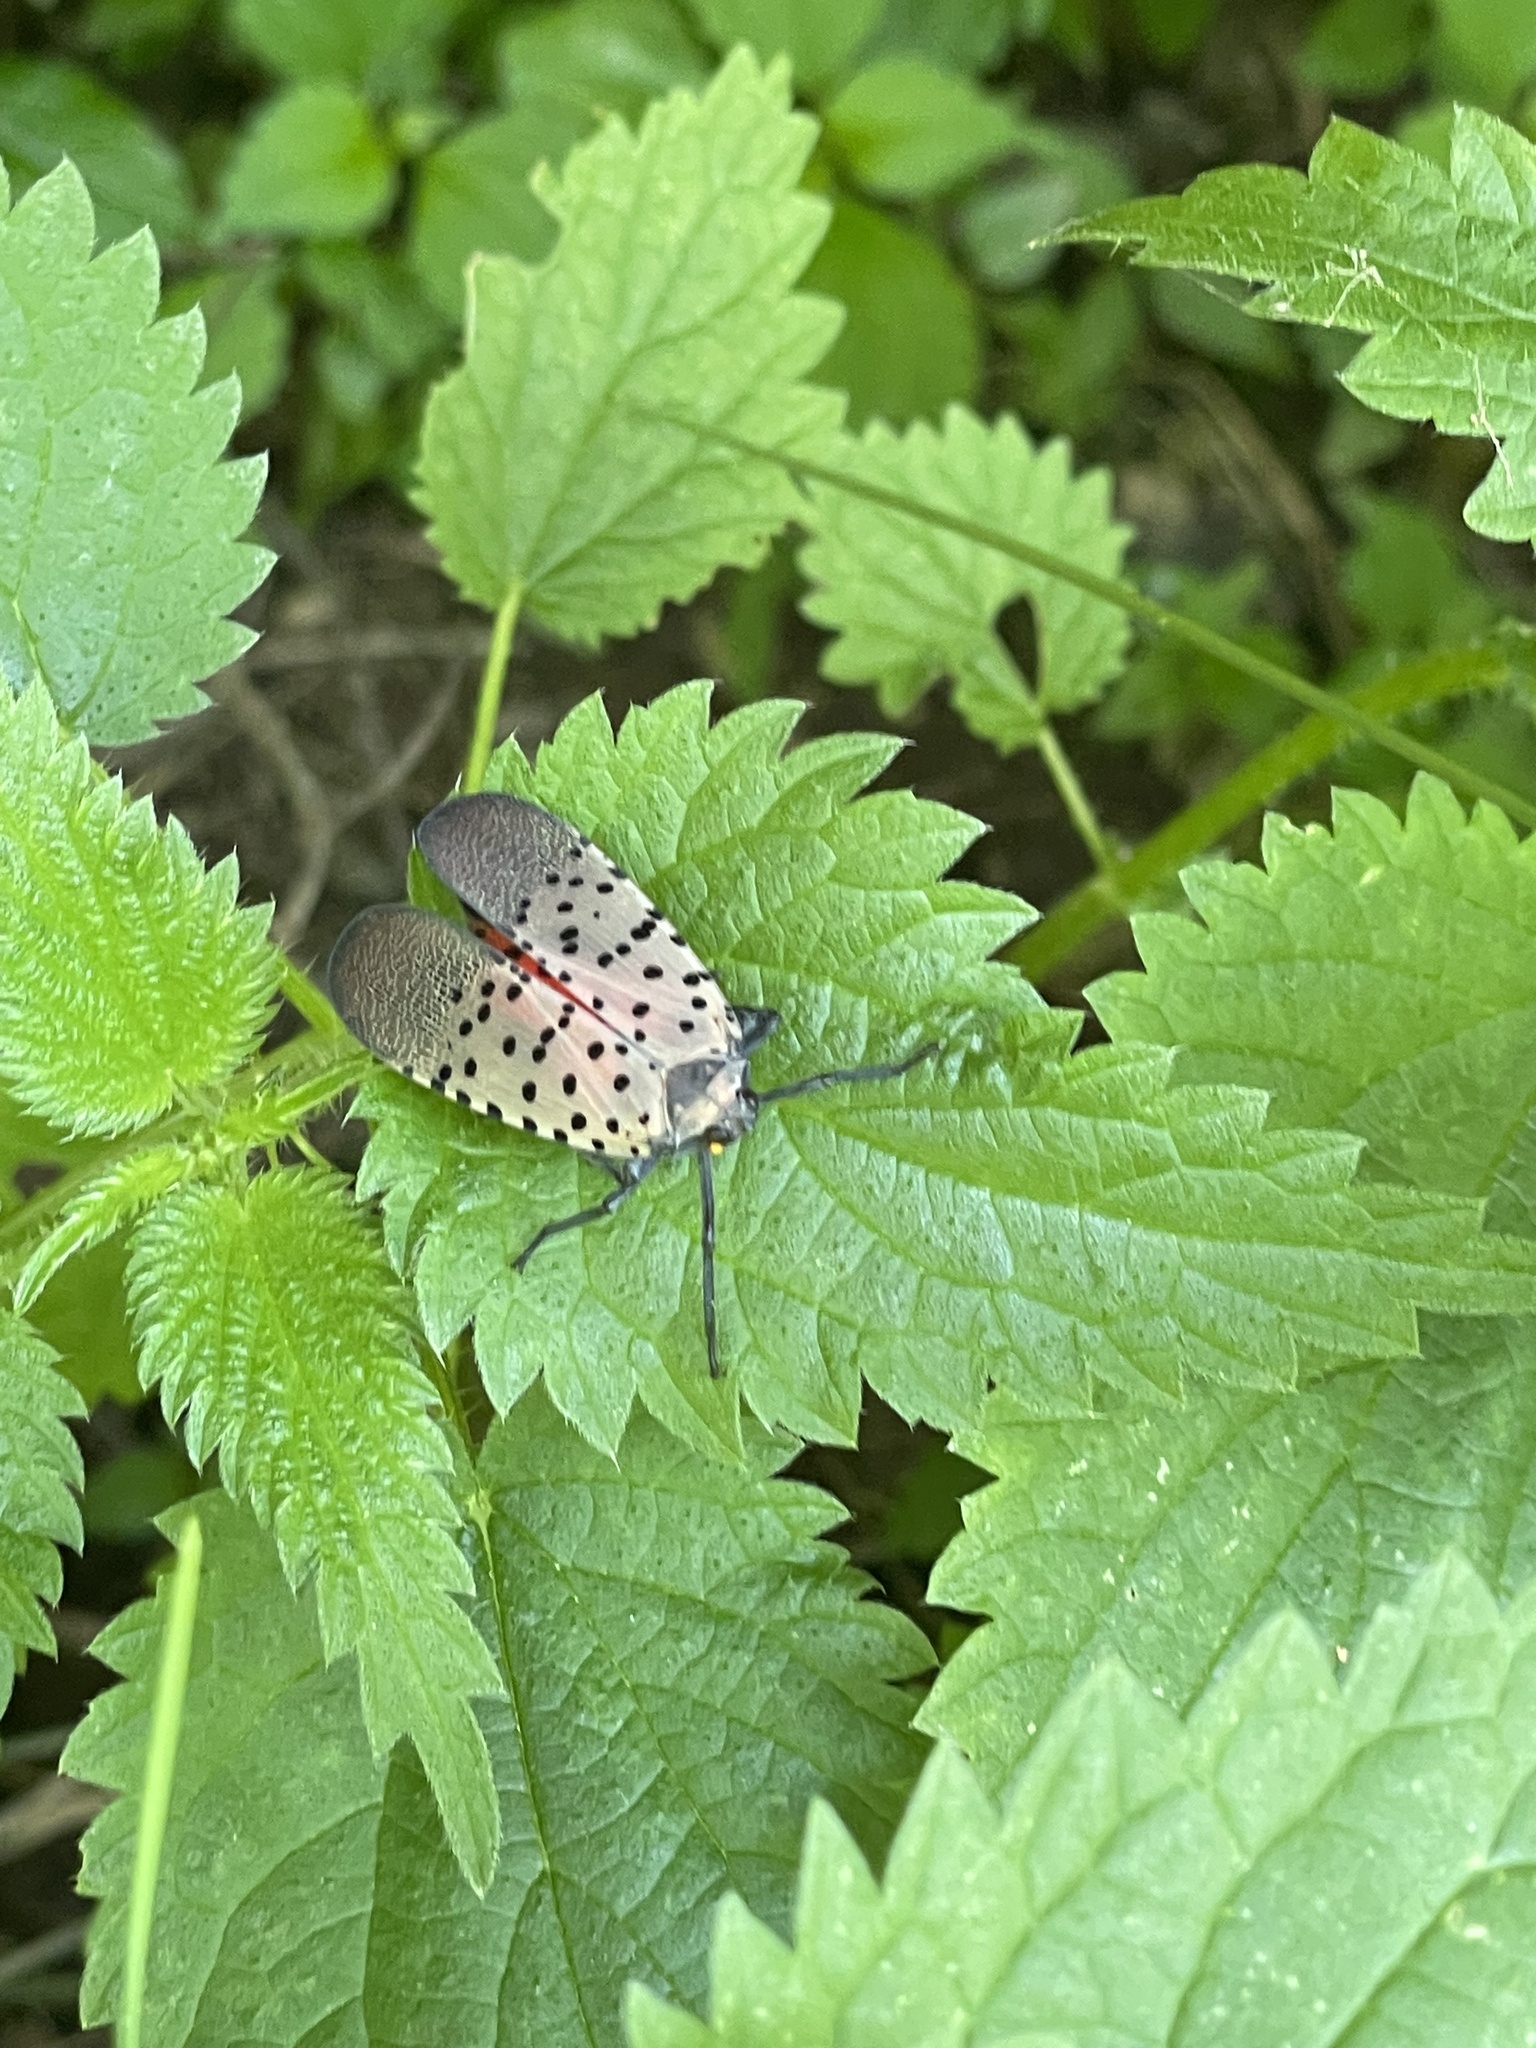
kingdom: Animalia
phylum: Arthropoda
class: Insecta
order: Hemiptera
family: Fulgoridae
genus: Lycorma
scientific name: Lycorma delicatula
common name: Spotted lanternfly
